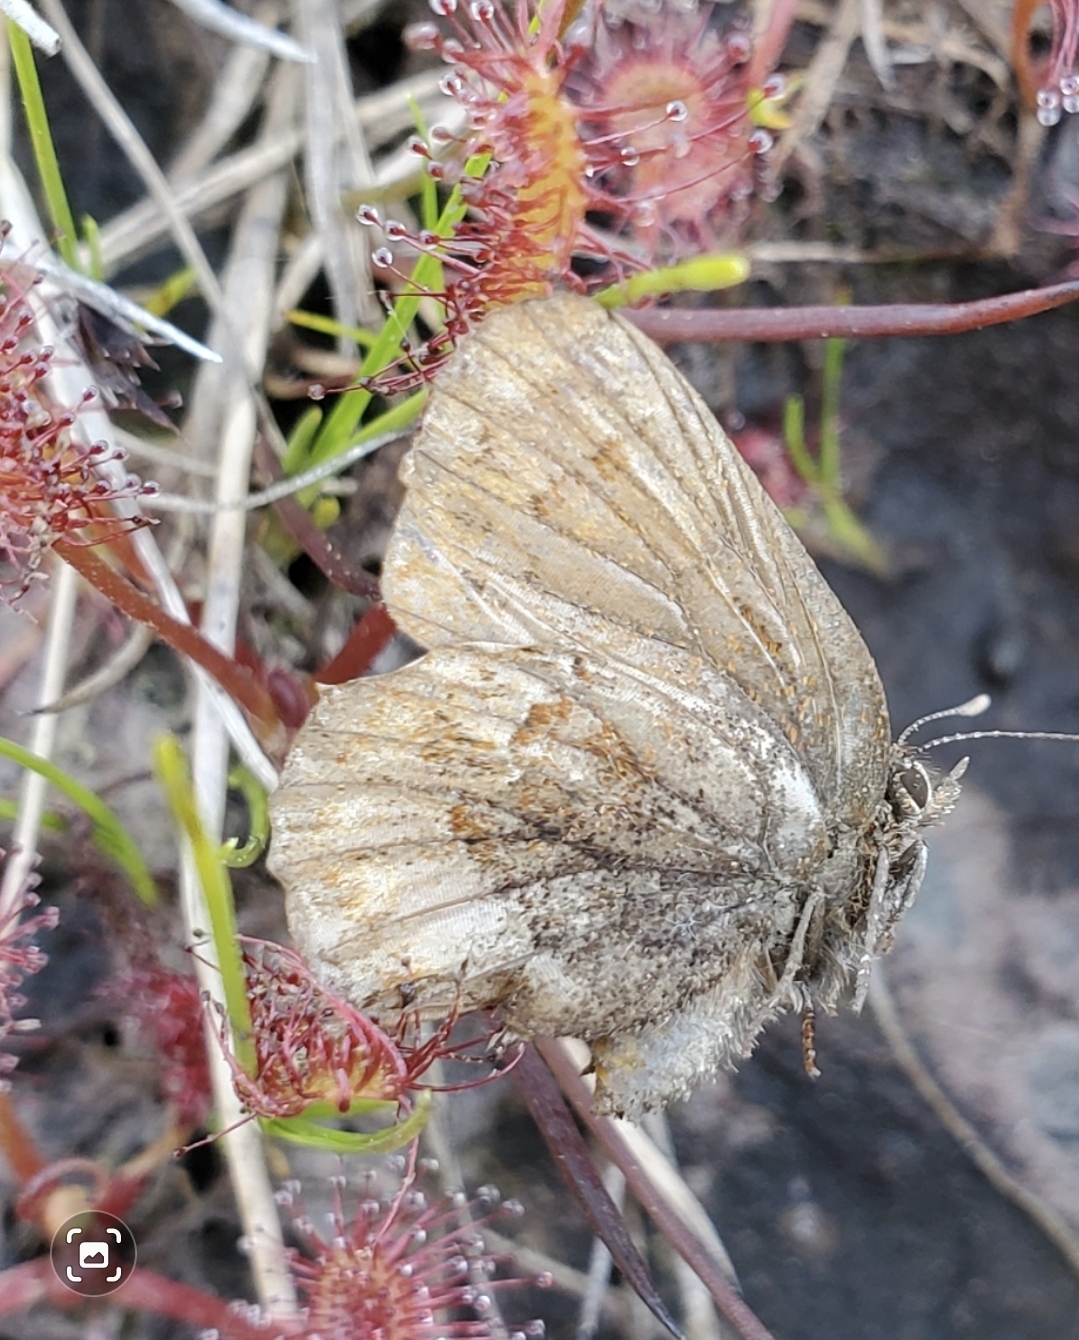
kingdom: Animalia
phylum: Arthropoda
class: Insecta
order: Lepidoptera
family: Lycaenidae
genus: Incisalia
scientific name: Incisalia eryphon
